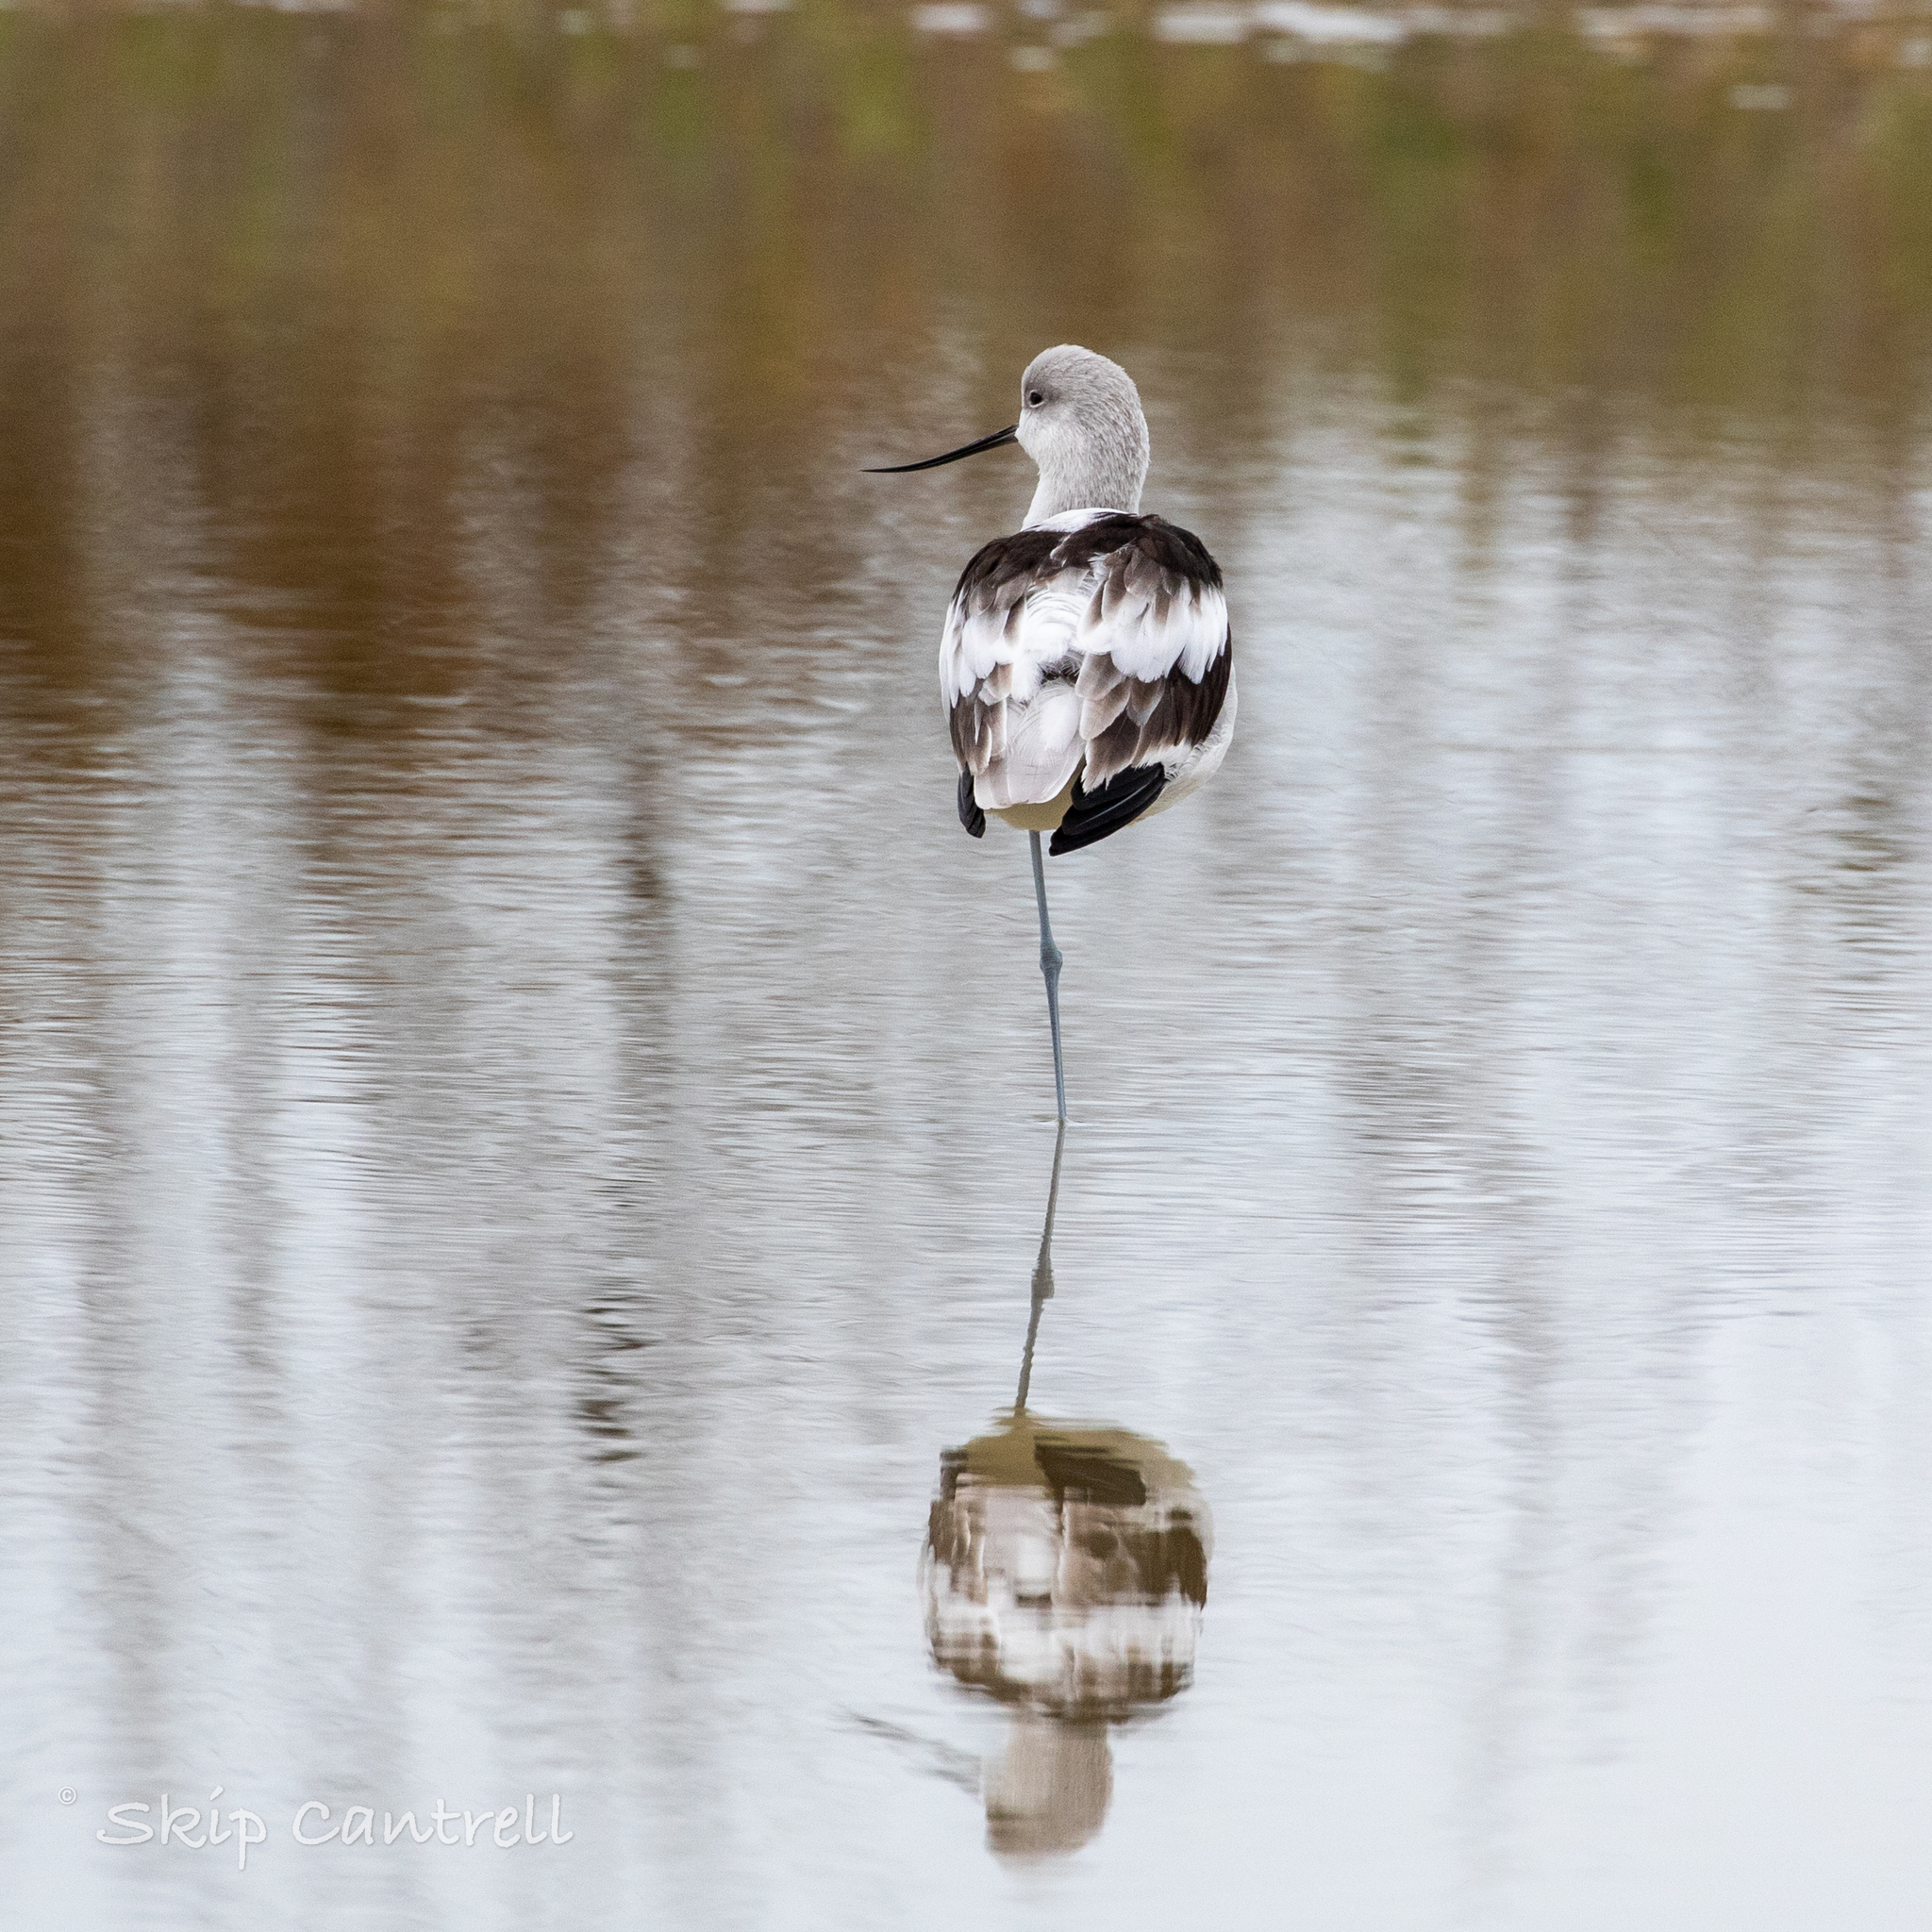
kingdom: Animalia
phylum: Chordata
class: Aves
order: Charadriiformes
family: Recurvirostridae
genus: Recurvirostra
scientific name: Recurvirostra americana
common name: American avocet
